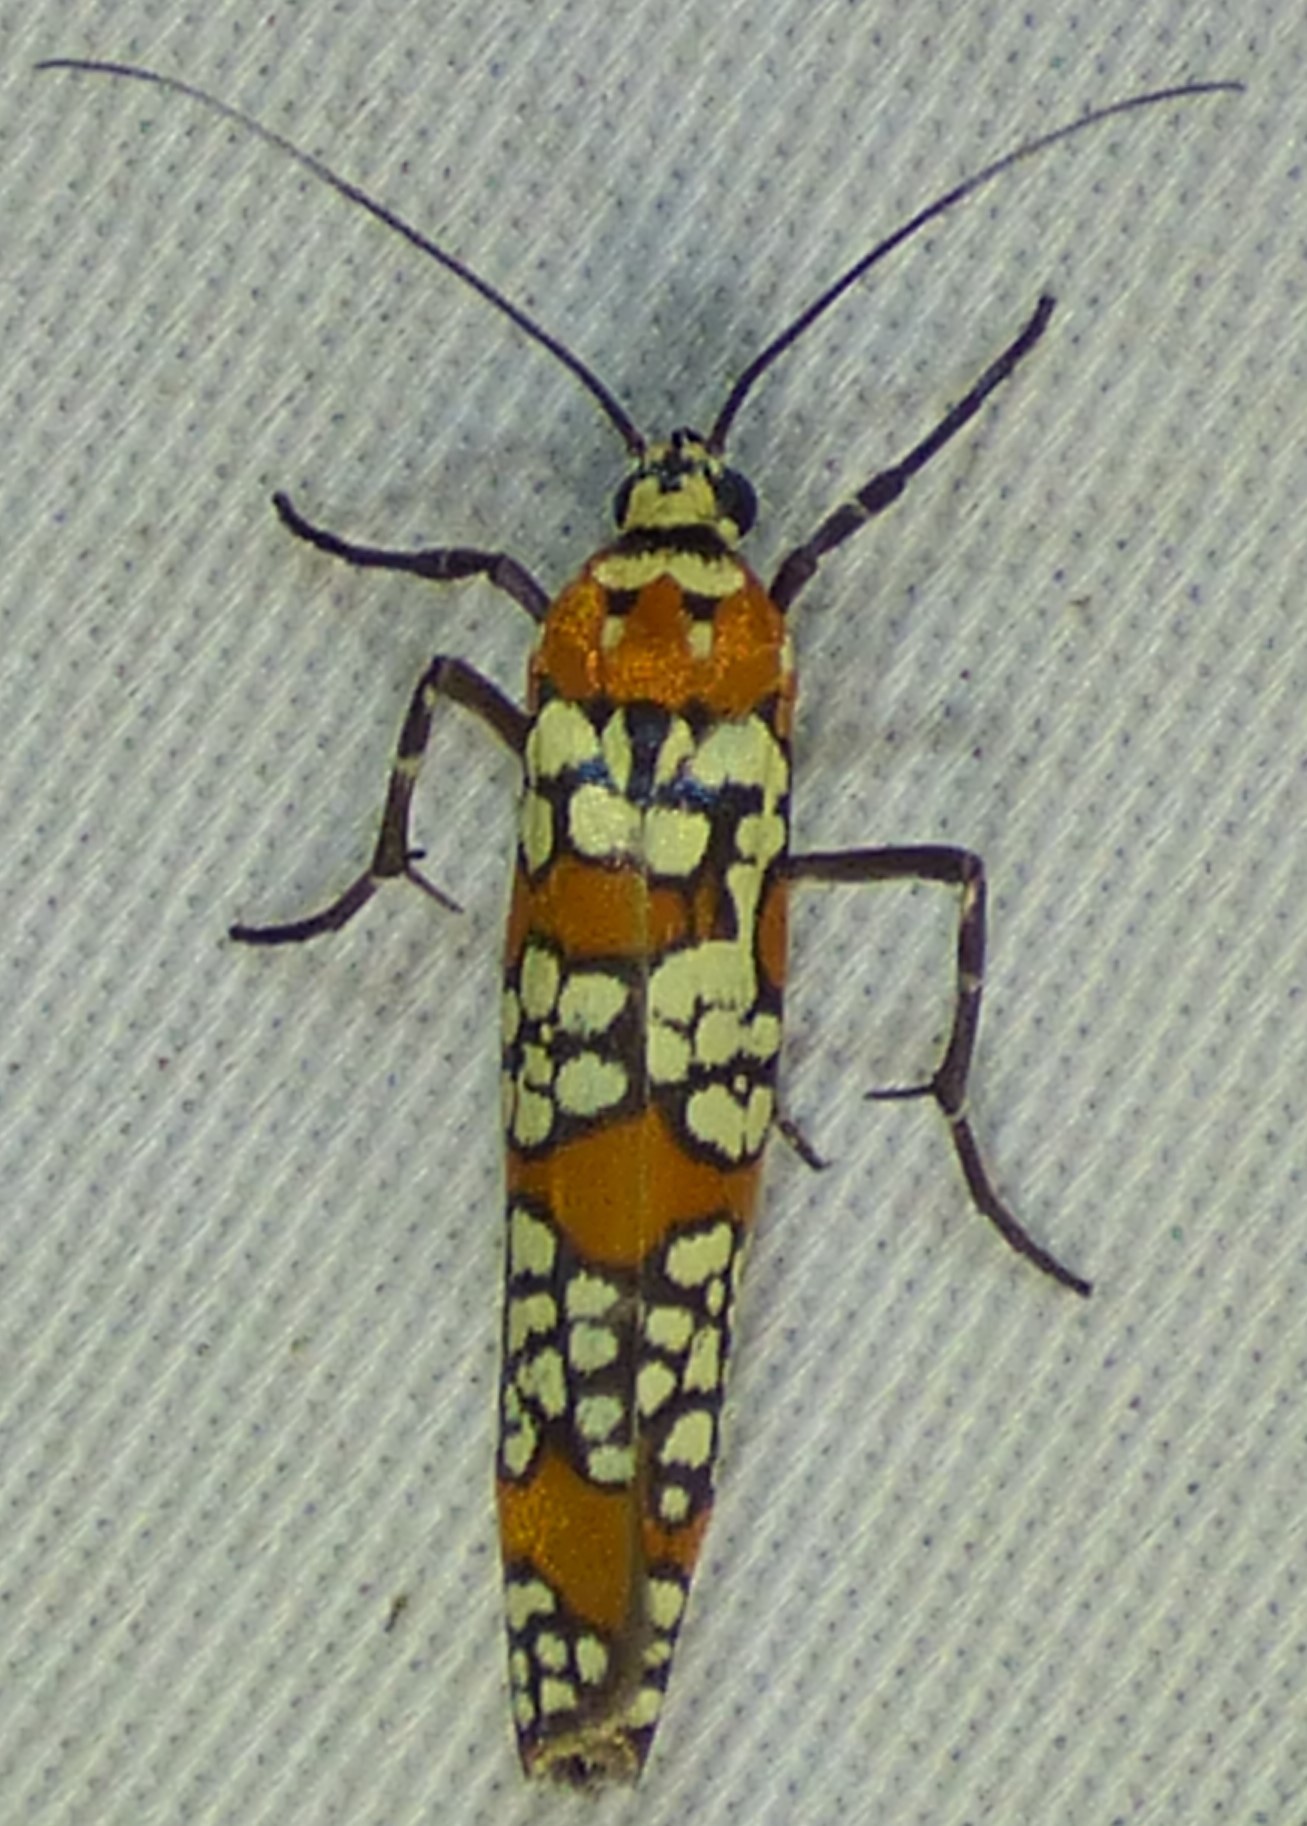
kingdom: Animalia
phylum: Arthropoda
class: Insecta
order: Lepidoptera
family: Attevidae
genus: Atteva
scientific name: Atteva punctella
